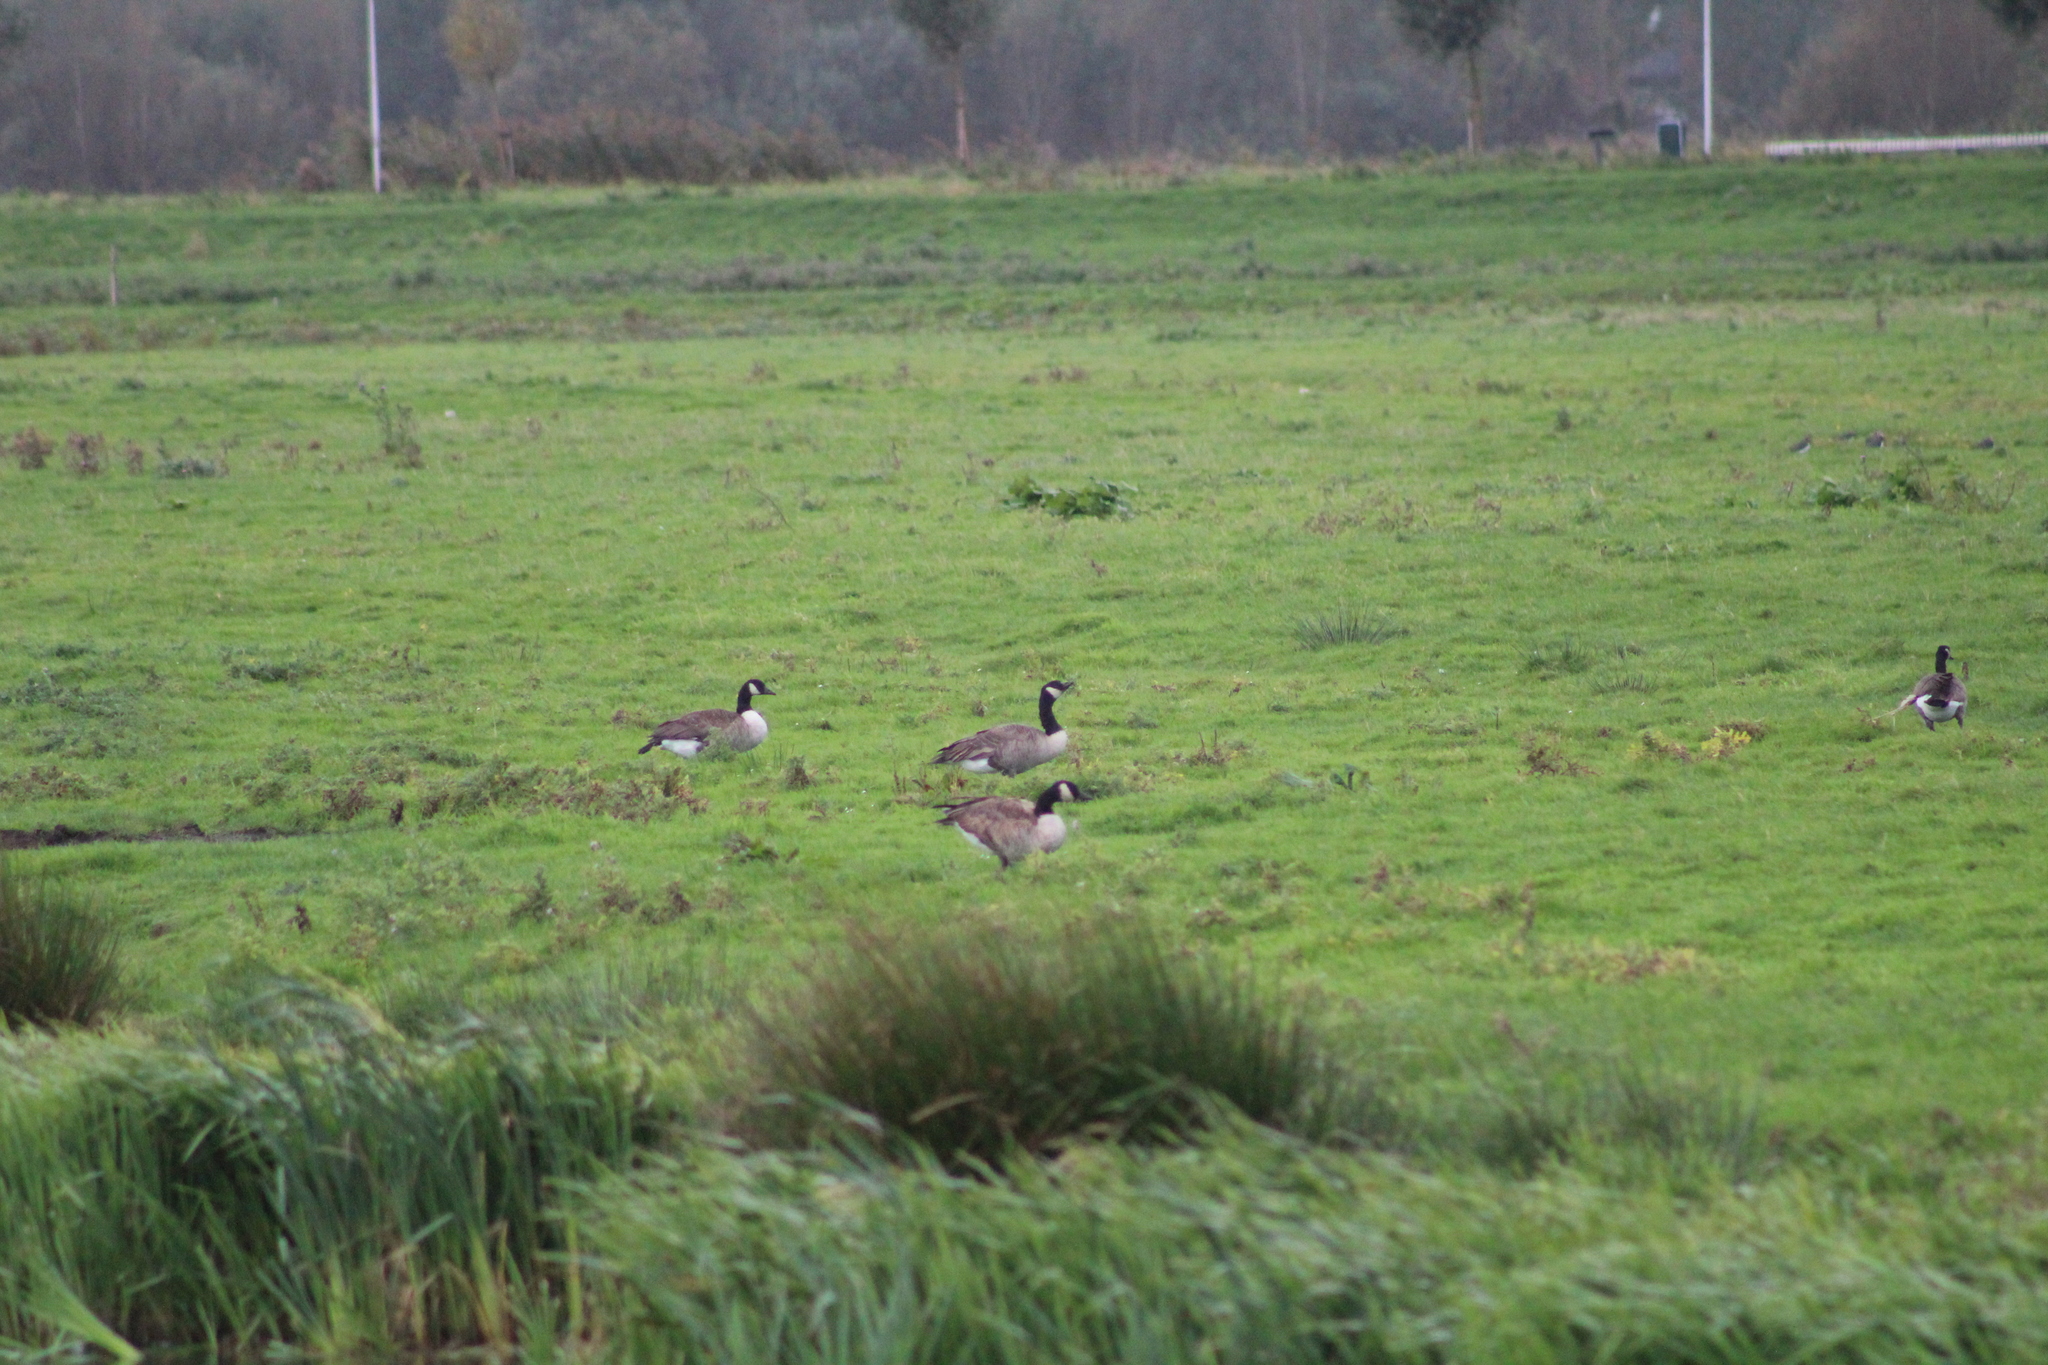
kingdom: Animalia
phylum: Chordata
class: Aves
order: Anseriformes
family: Anatidae
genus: Branta
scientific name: Branta canadensis
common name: Canada goose
